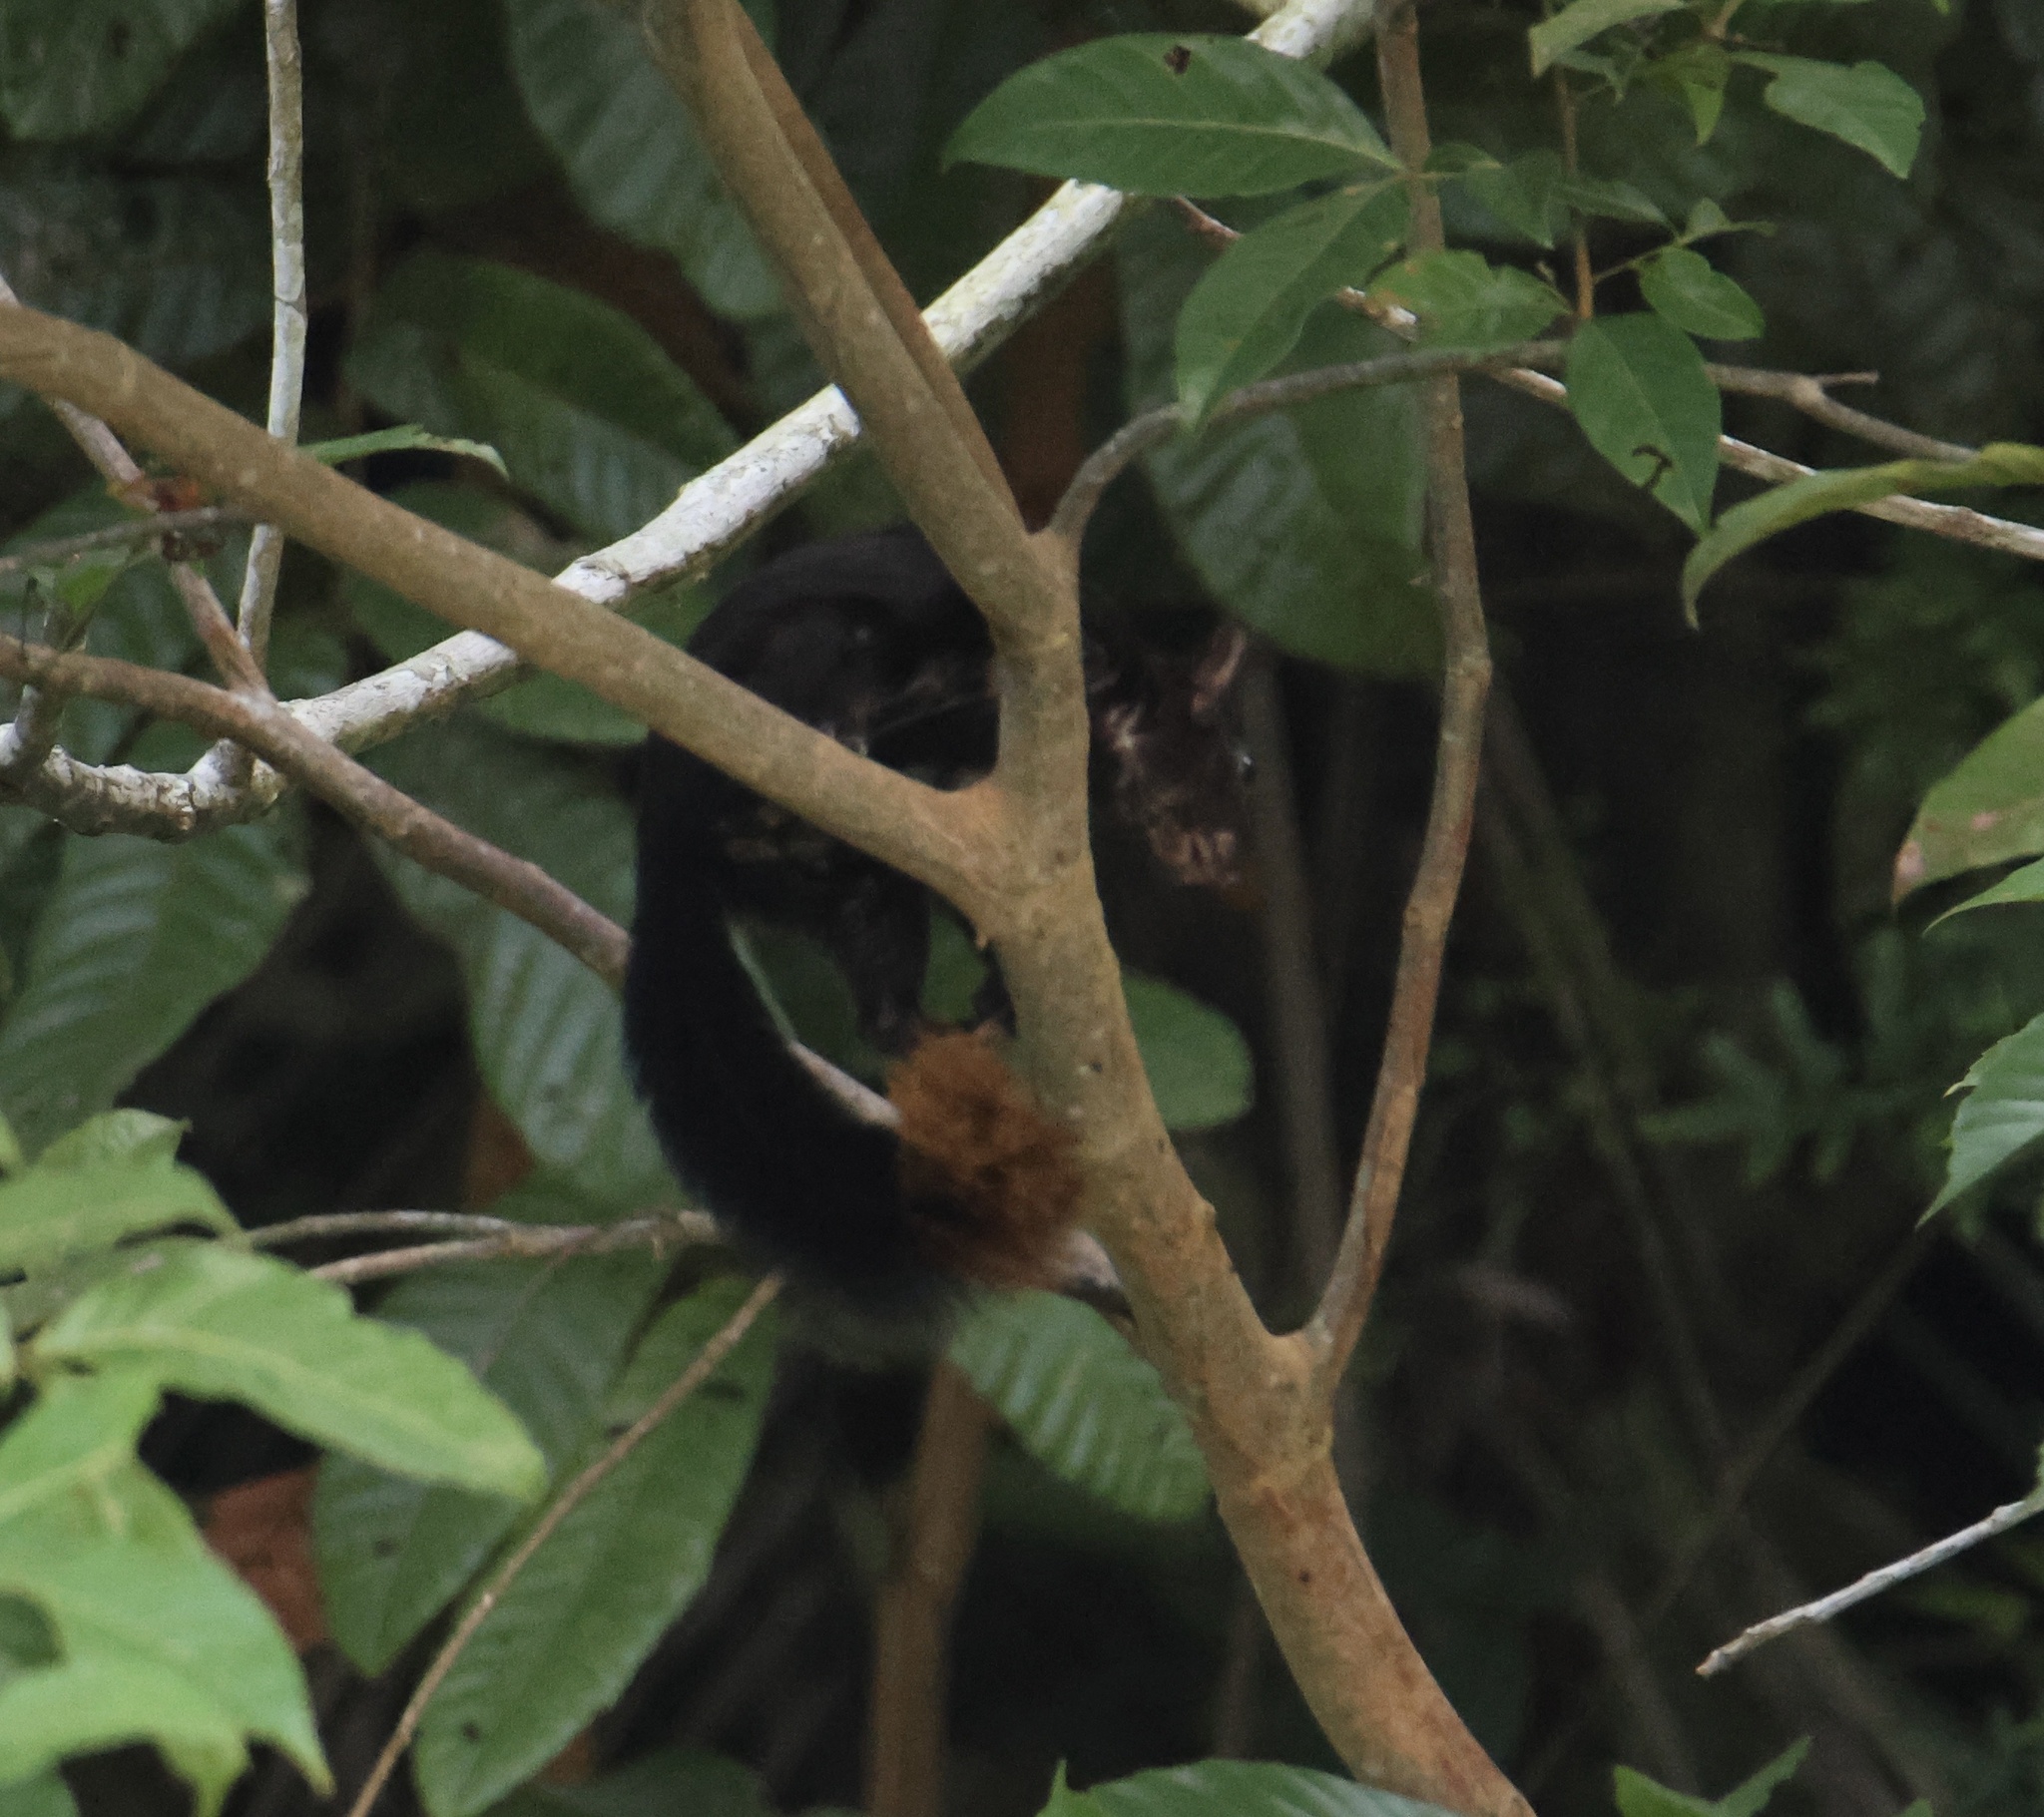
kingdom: Animalia
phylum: Chordata
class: Mammalia
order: Rodentia
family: Sciuridae
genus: Sciurus
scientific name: Sciurus variegatoides
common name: Variegated squirrel
